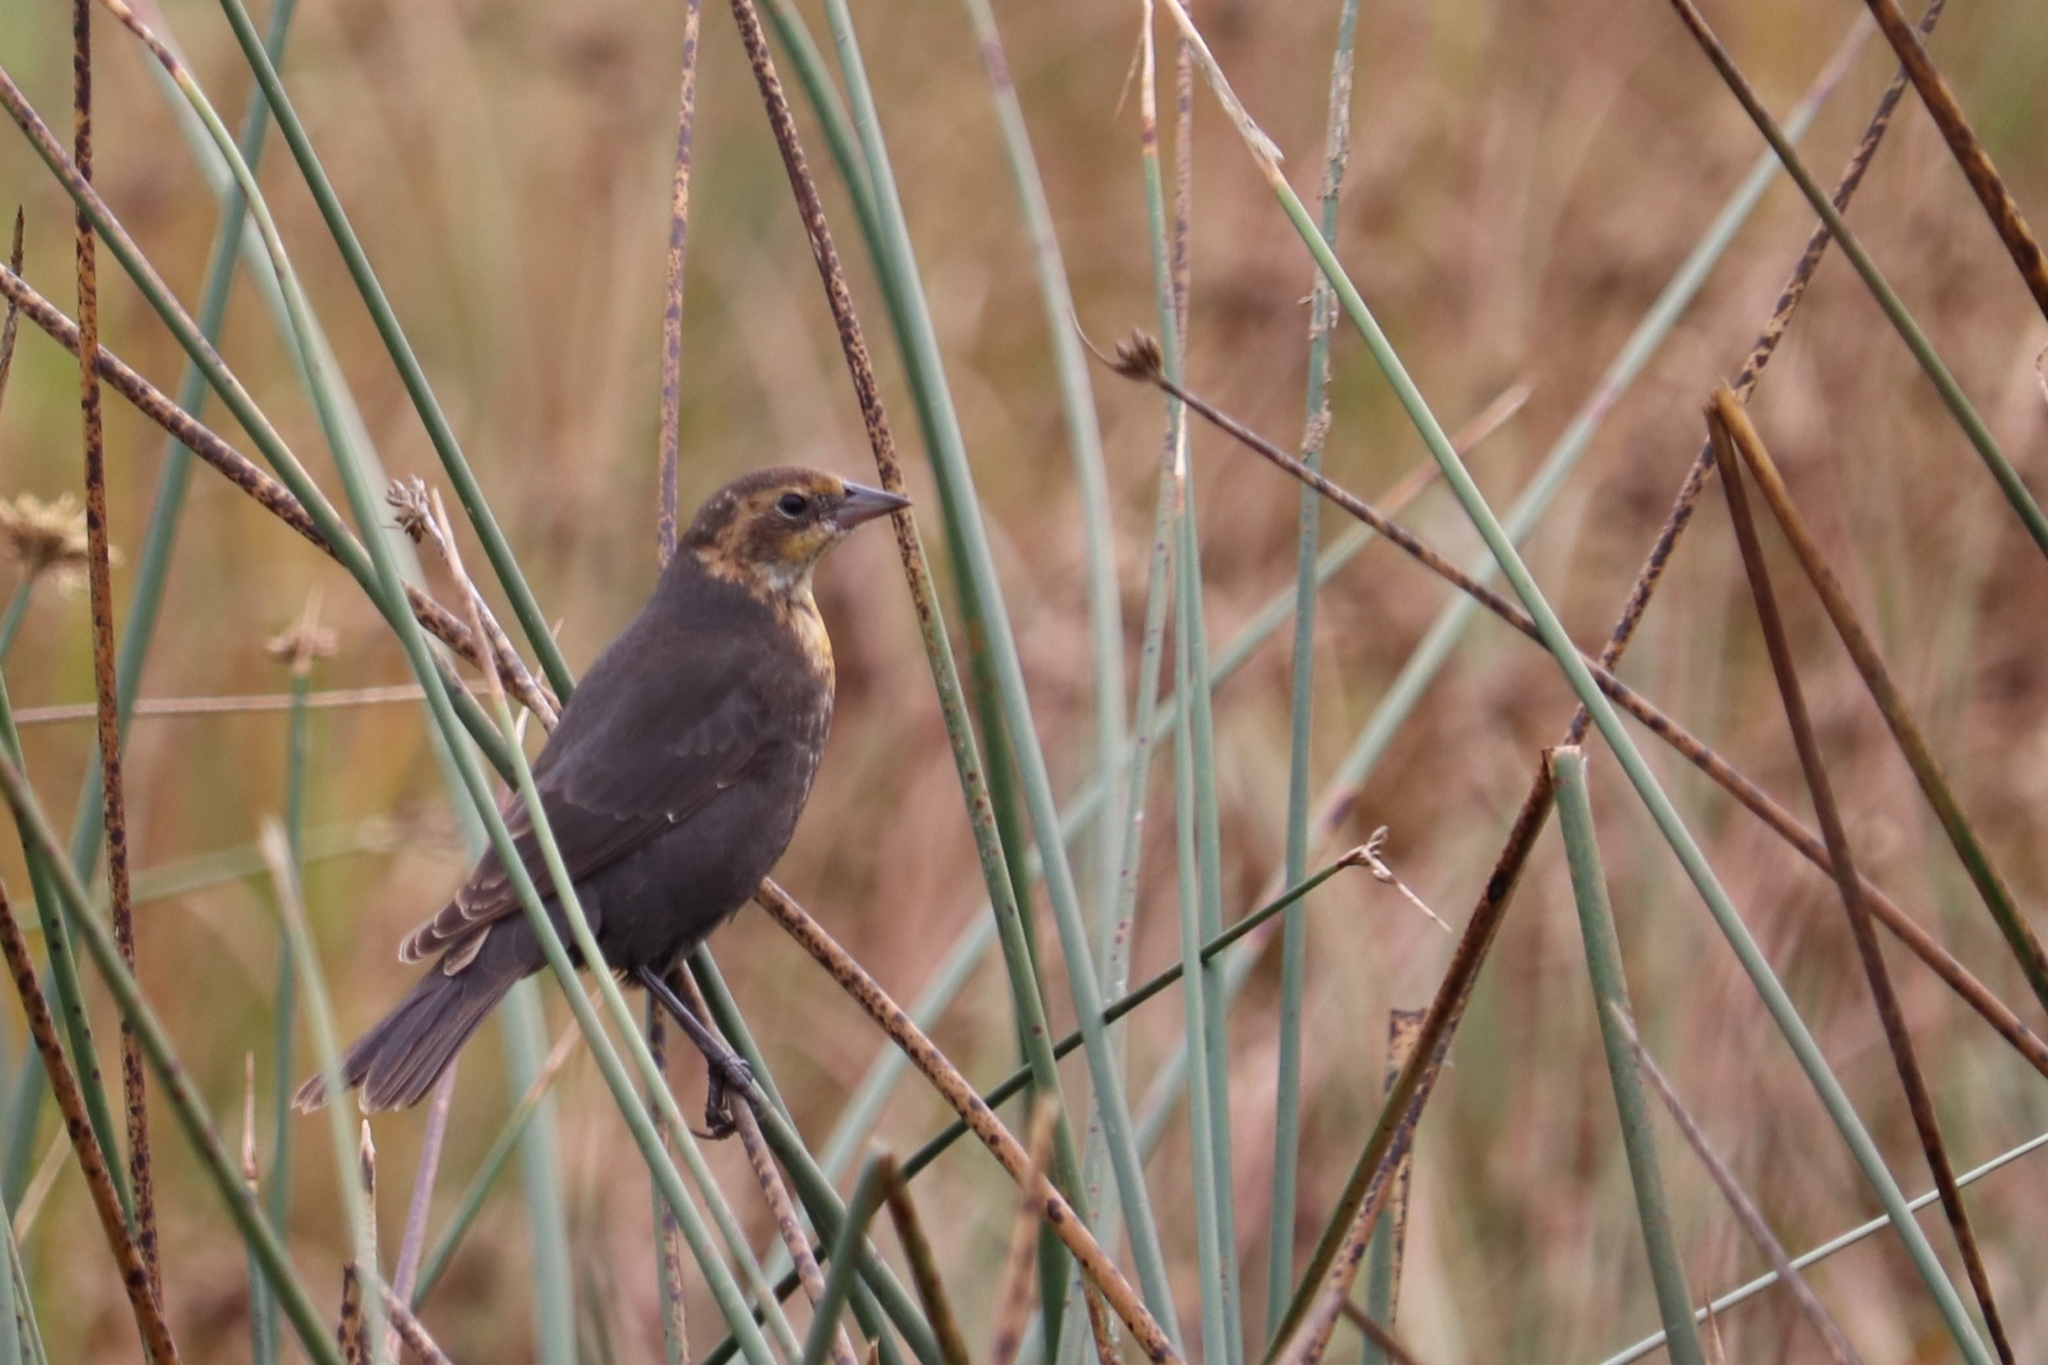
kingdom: Animalia
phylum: Chordata
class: Aves
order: Passeriformes
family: Icteridae
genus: Xanthocephalus
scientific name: Xanthocephalus xanthocephalus
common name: Yellow-headed blackbird
